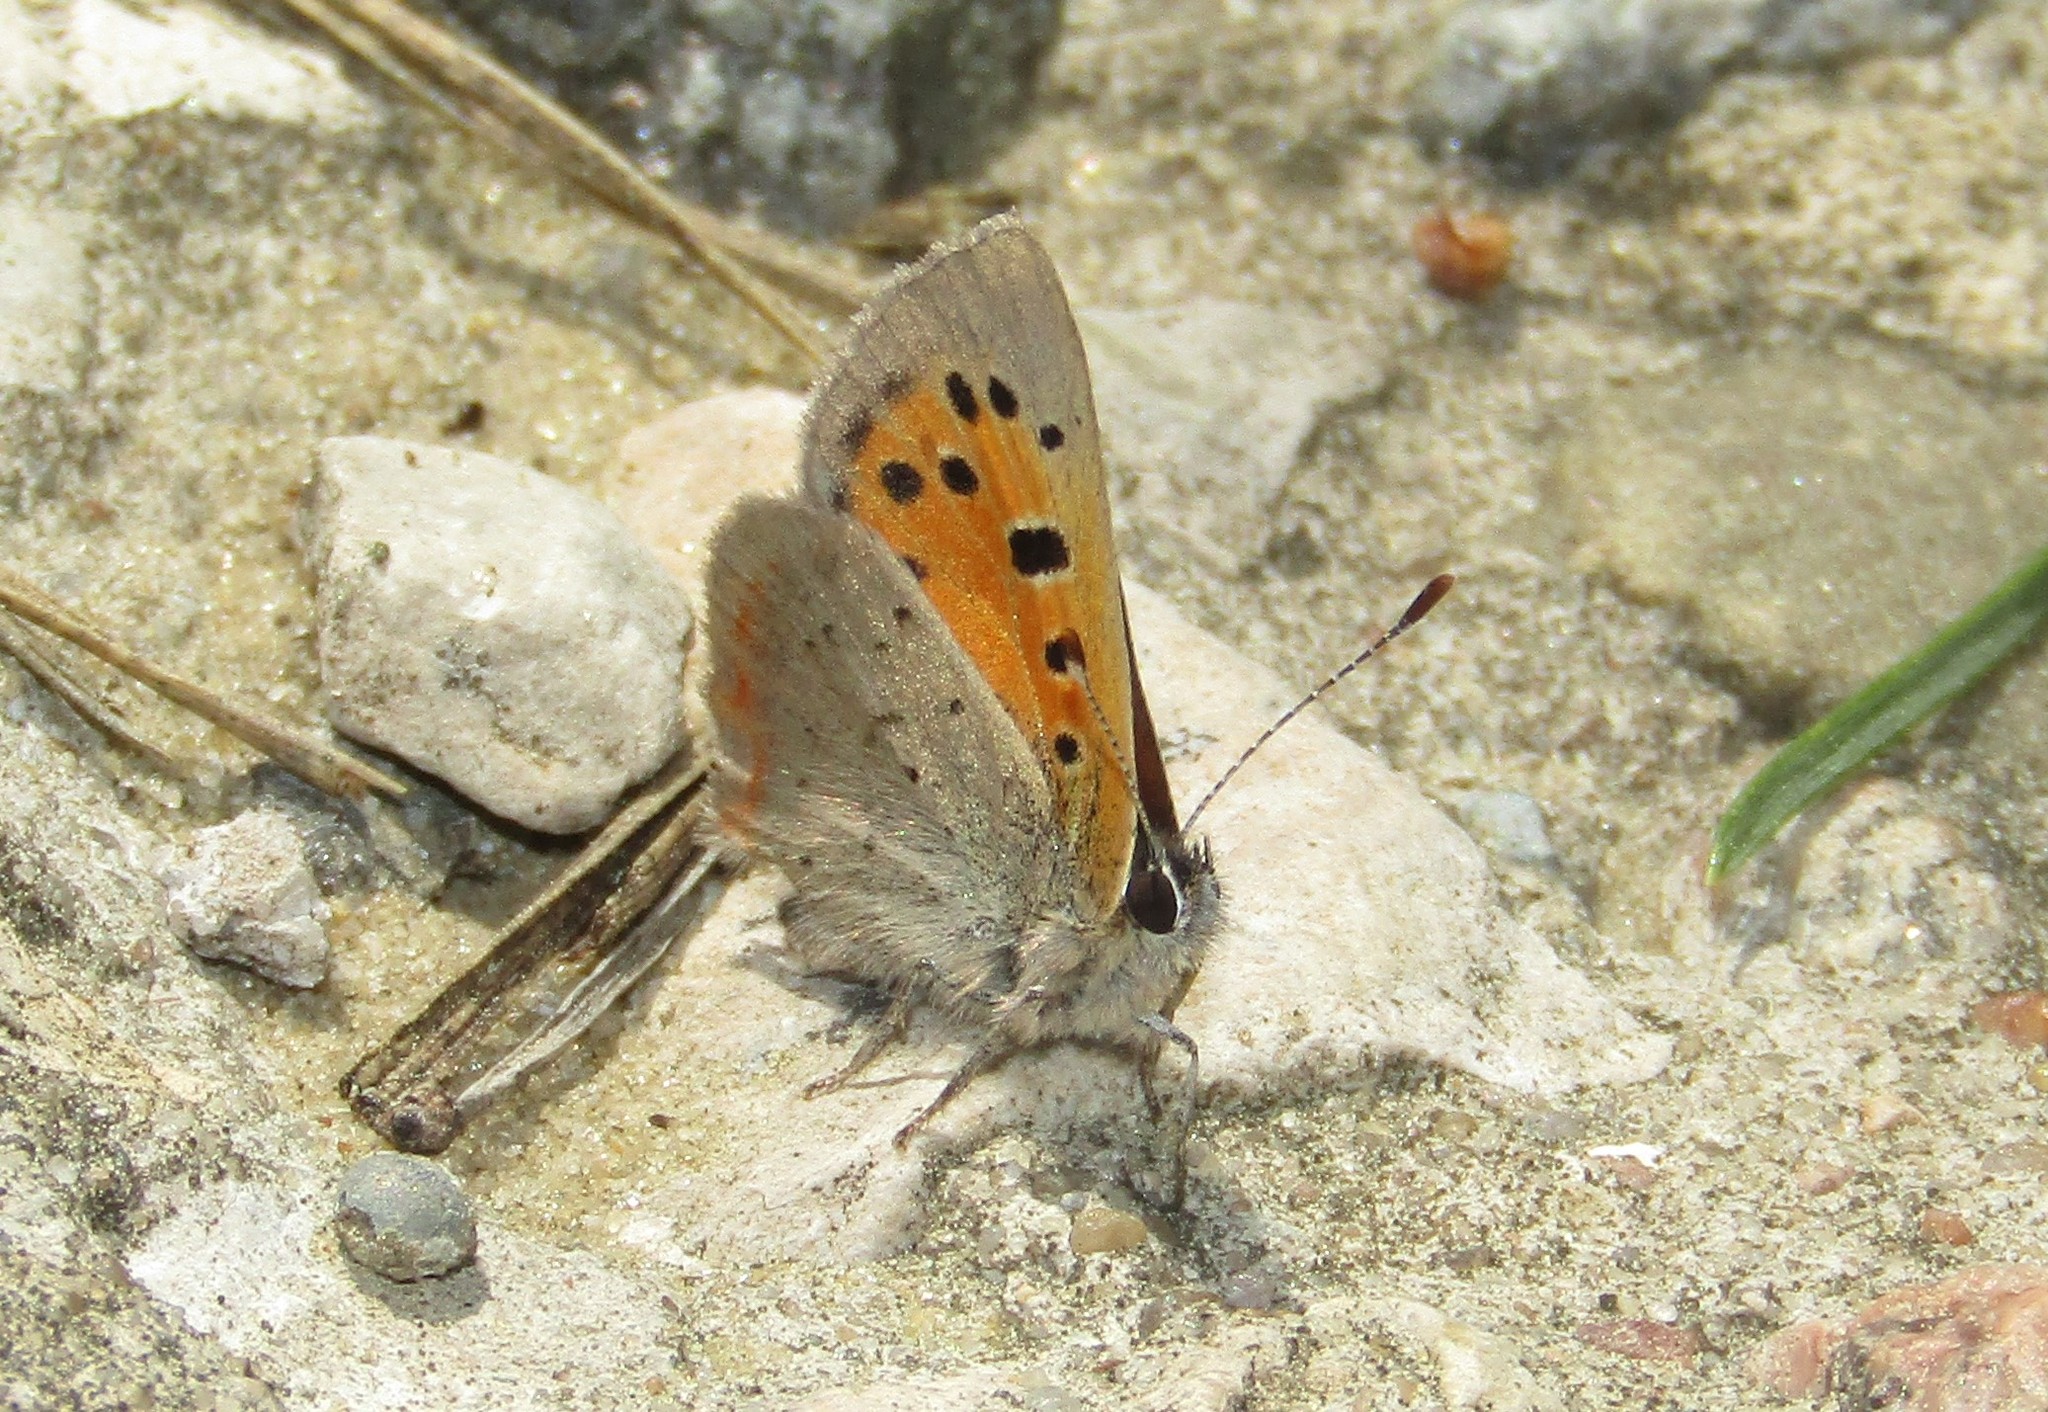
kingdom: Animalia
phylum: Arthropoda
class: Insecta
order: Lepidoptera
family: Lycaenidae
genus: Lycaena
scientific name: Lycaena phlaeas
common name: Small copper
